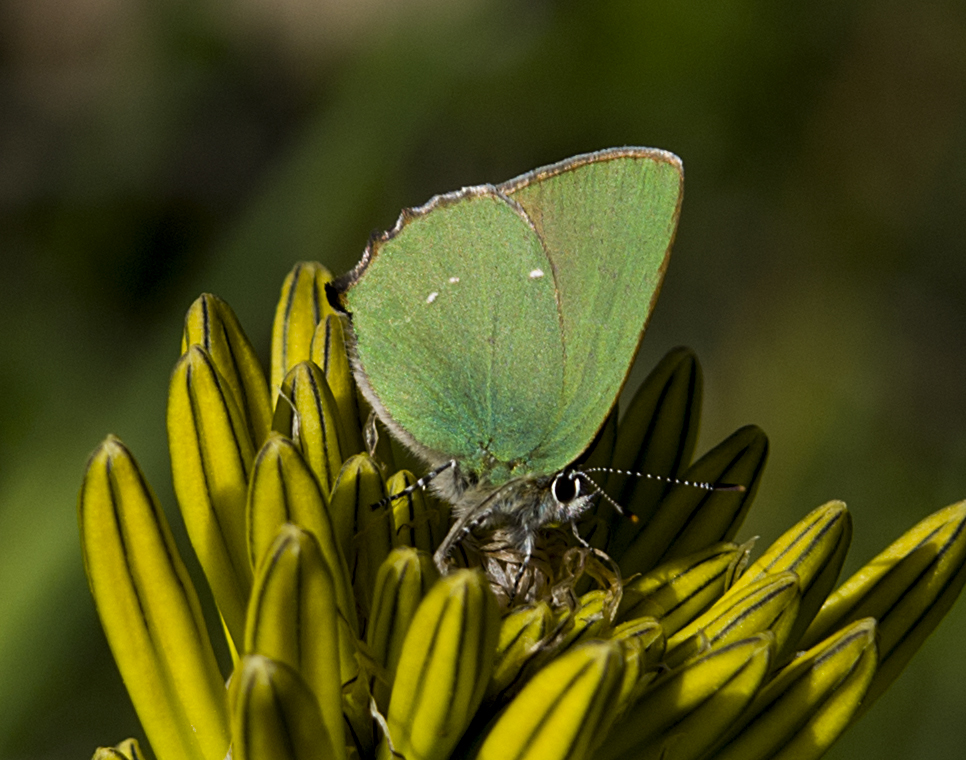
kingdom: Animalia
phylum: Arthropoda
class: Insecta
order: Lepidoptera
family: Lycaenidae
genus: Callophrys
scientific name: Callophrys rubi
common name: Green hairstreak
